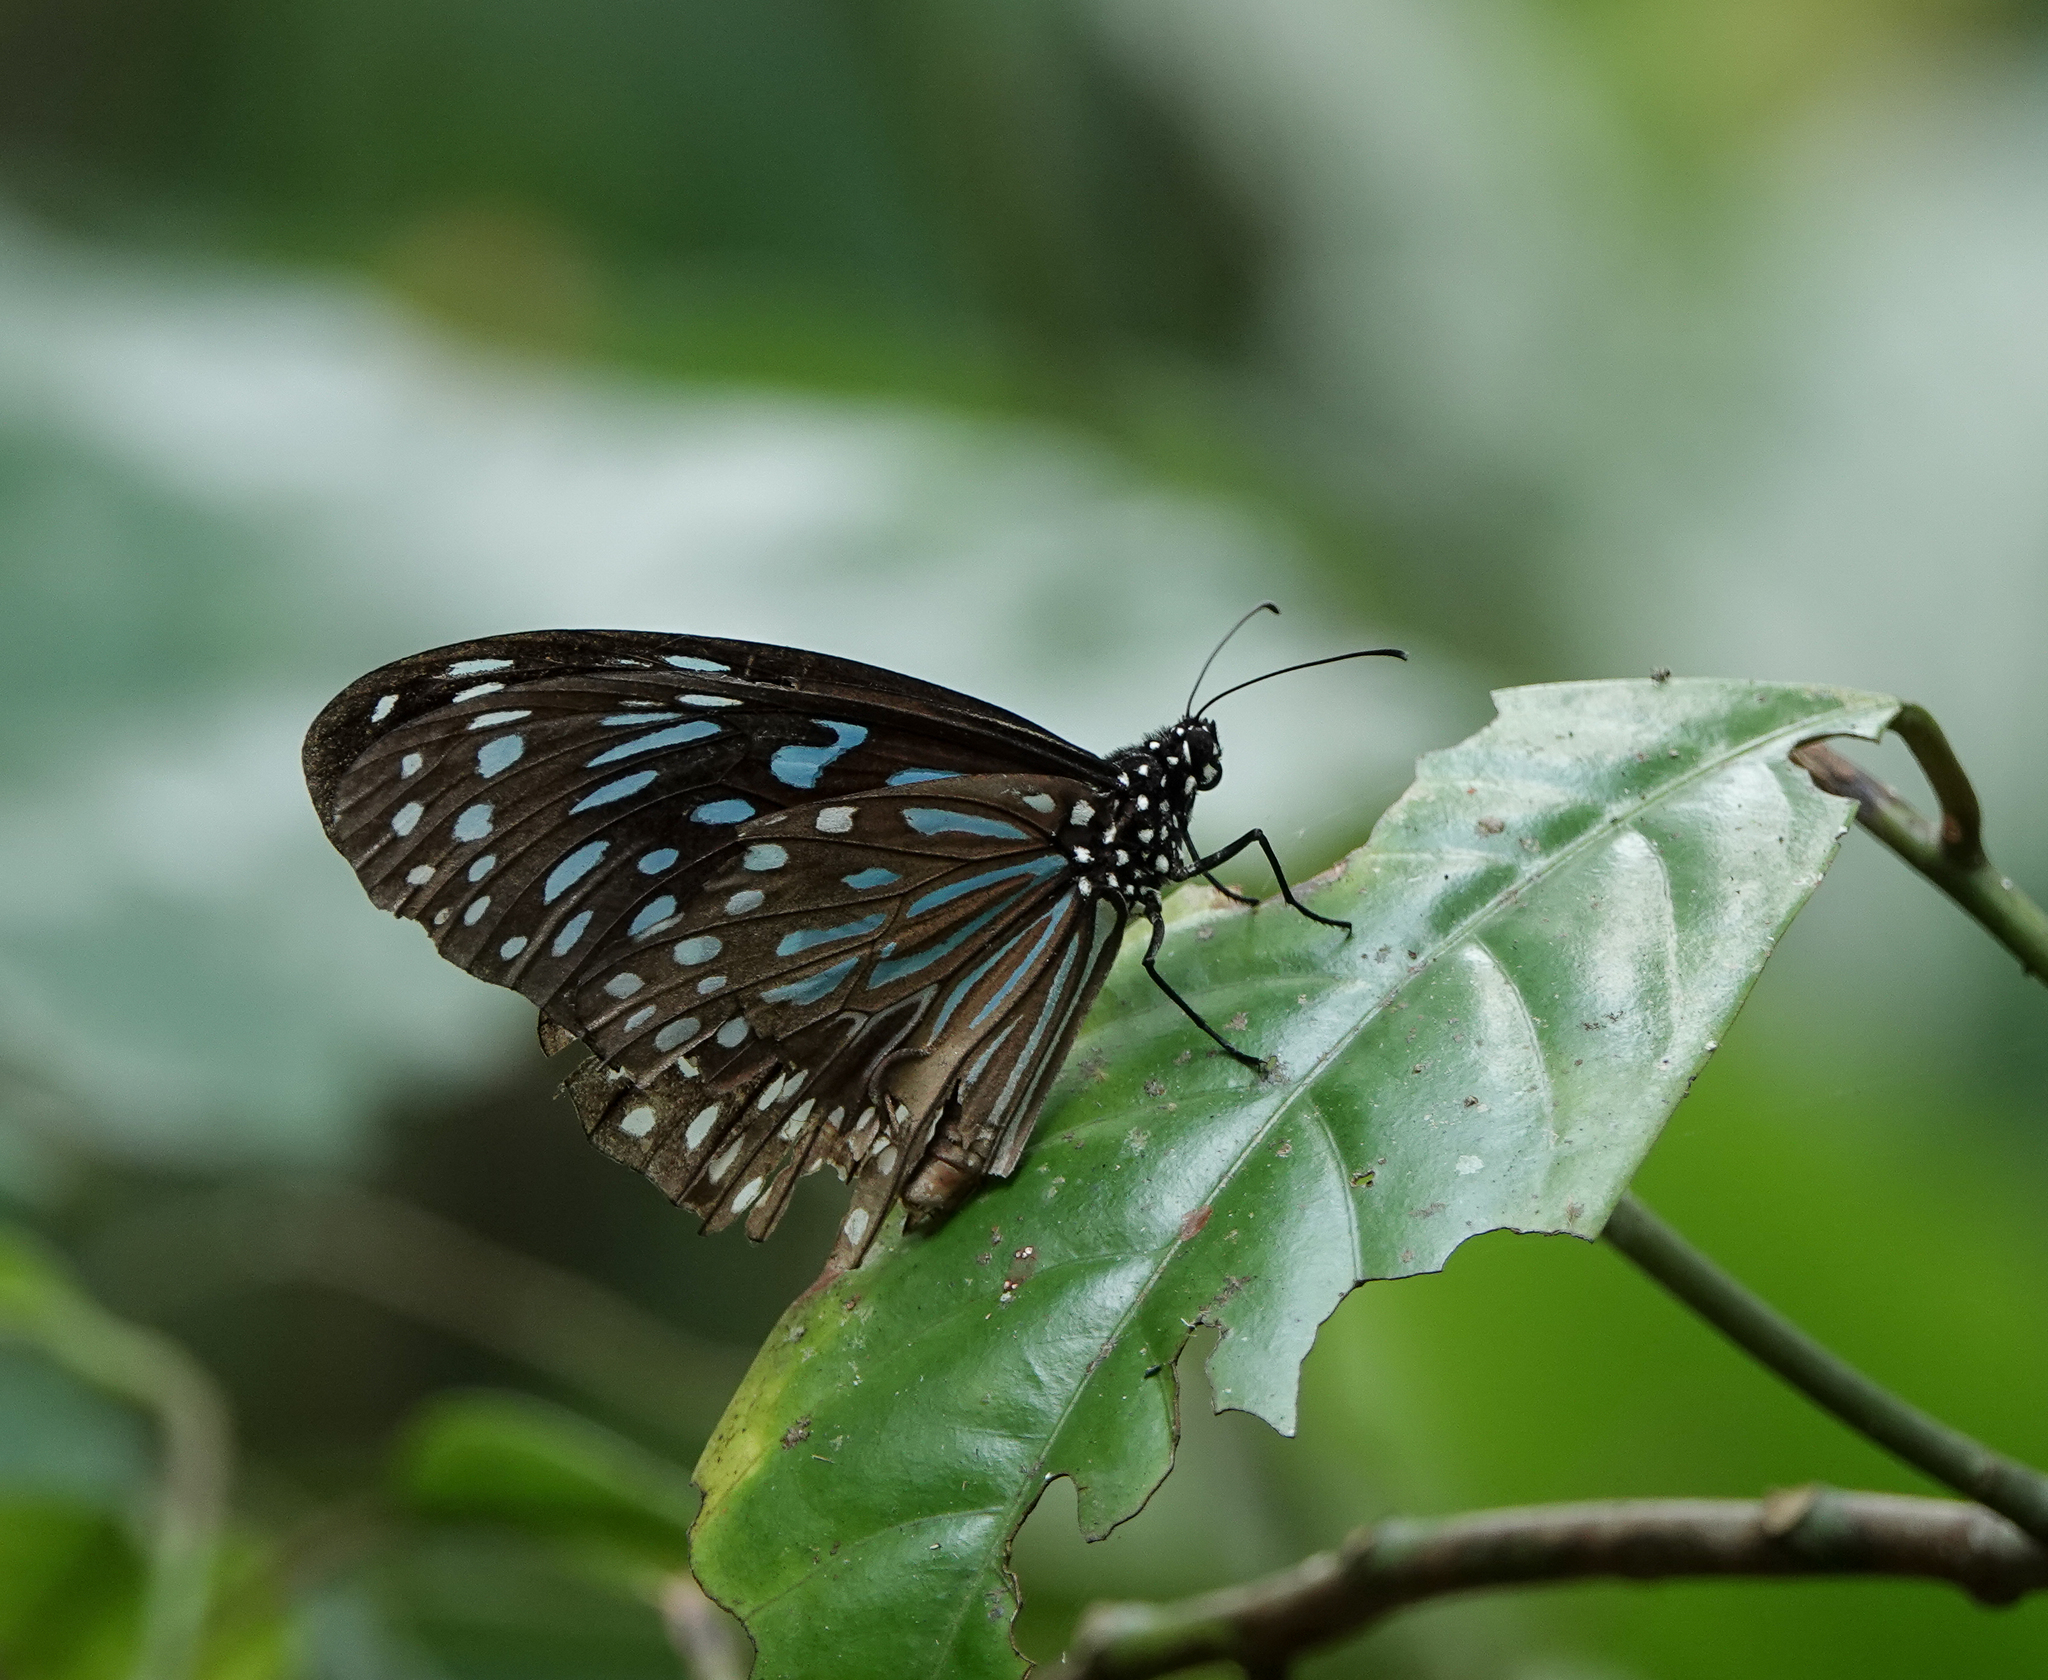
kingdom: Animalia
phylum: Arthropoda
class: Insecta
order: Lepidoptera
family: Nymphalidae
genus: Tirumala
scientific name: Tirumala septentrionis
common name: Dark blue tiger butterfly
